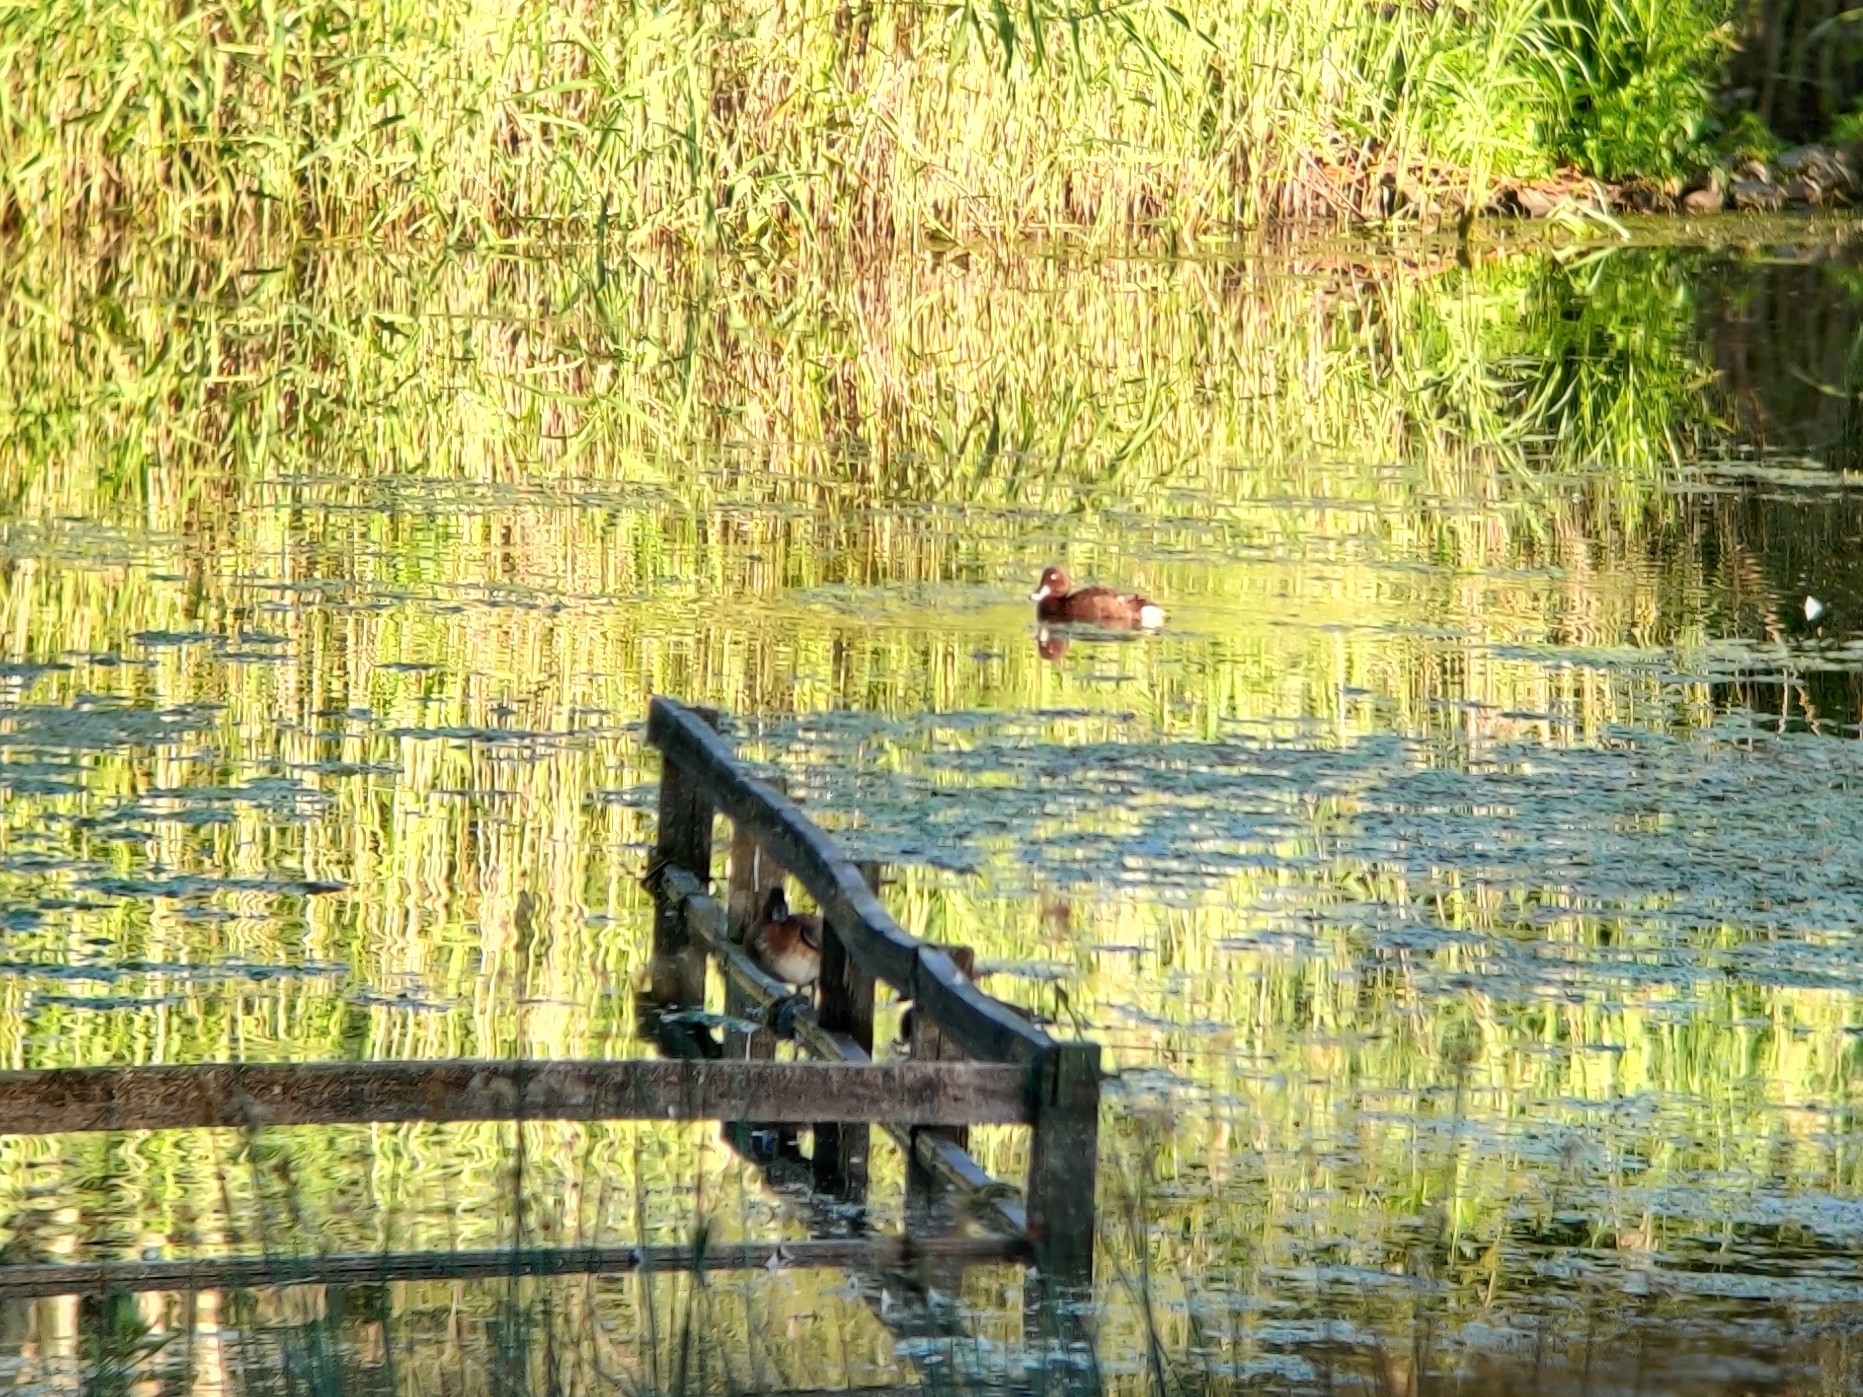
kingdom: Animalia
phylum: Chordata
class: Aves
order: Anseriformes
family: Anatidae
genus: Aythya
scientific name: Aythya australis
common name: Hardhead
